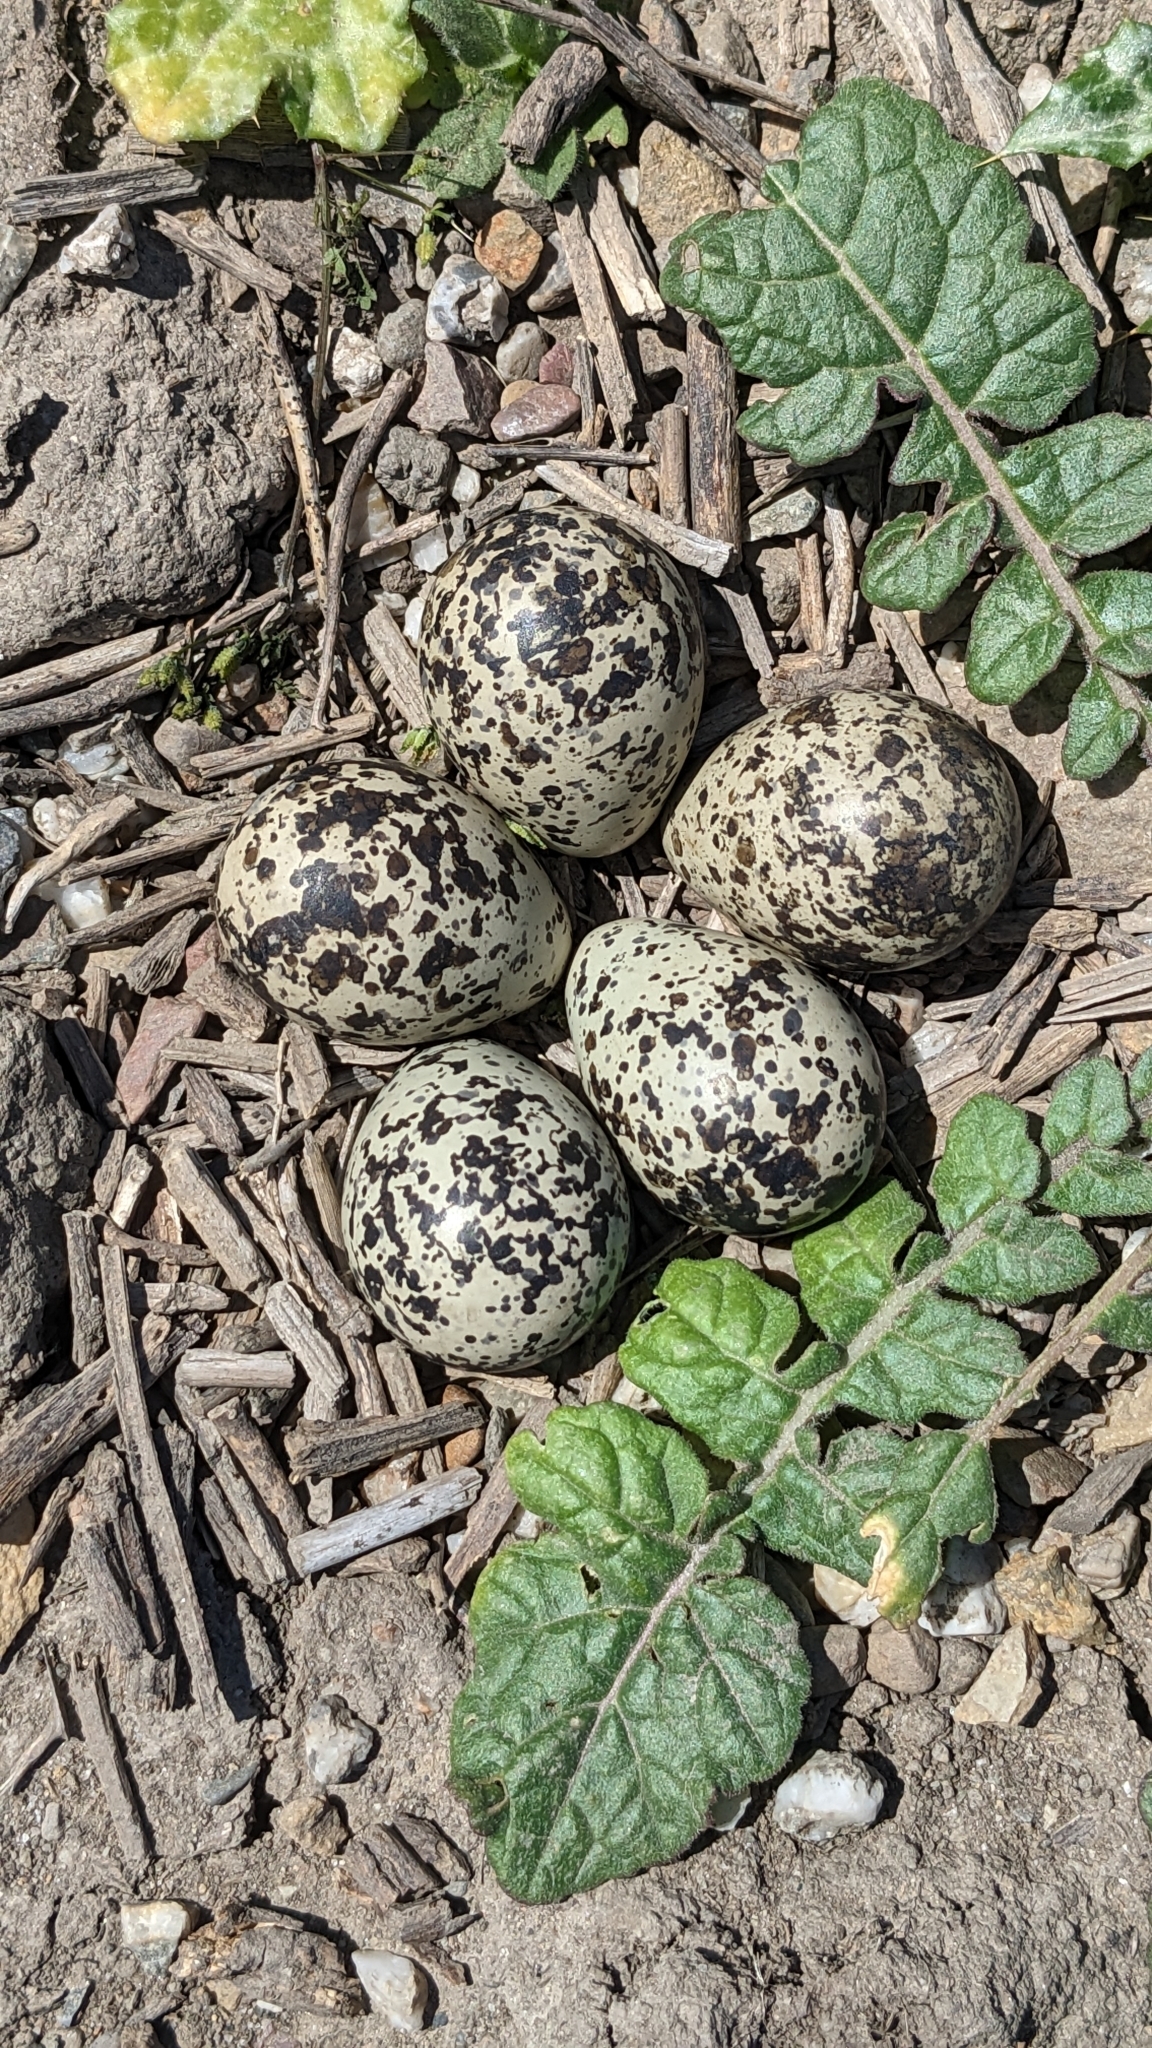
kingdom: Animalia
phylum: Chordata
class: Aves
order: Charadriiformes
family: Charadriidae
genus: Charadrius
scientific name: Charadrius vociferus
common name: Killdeer
